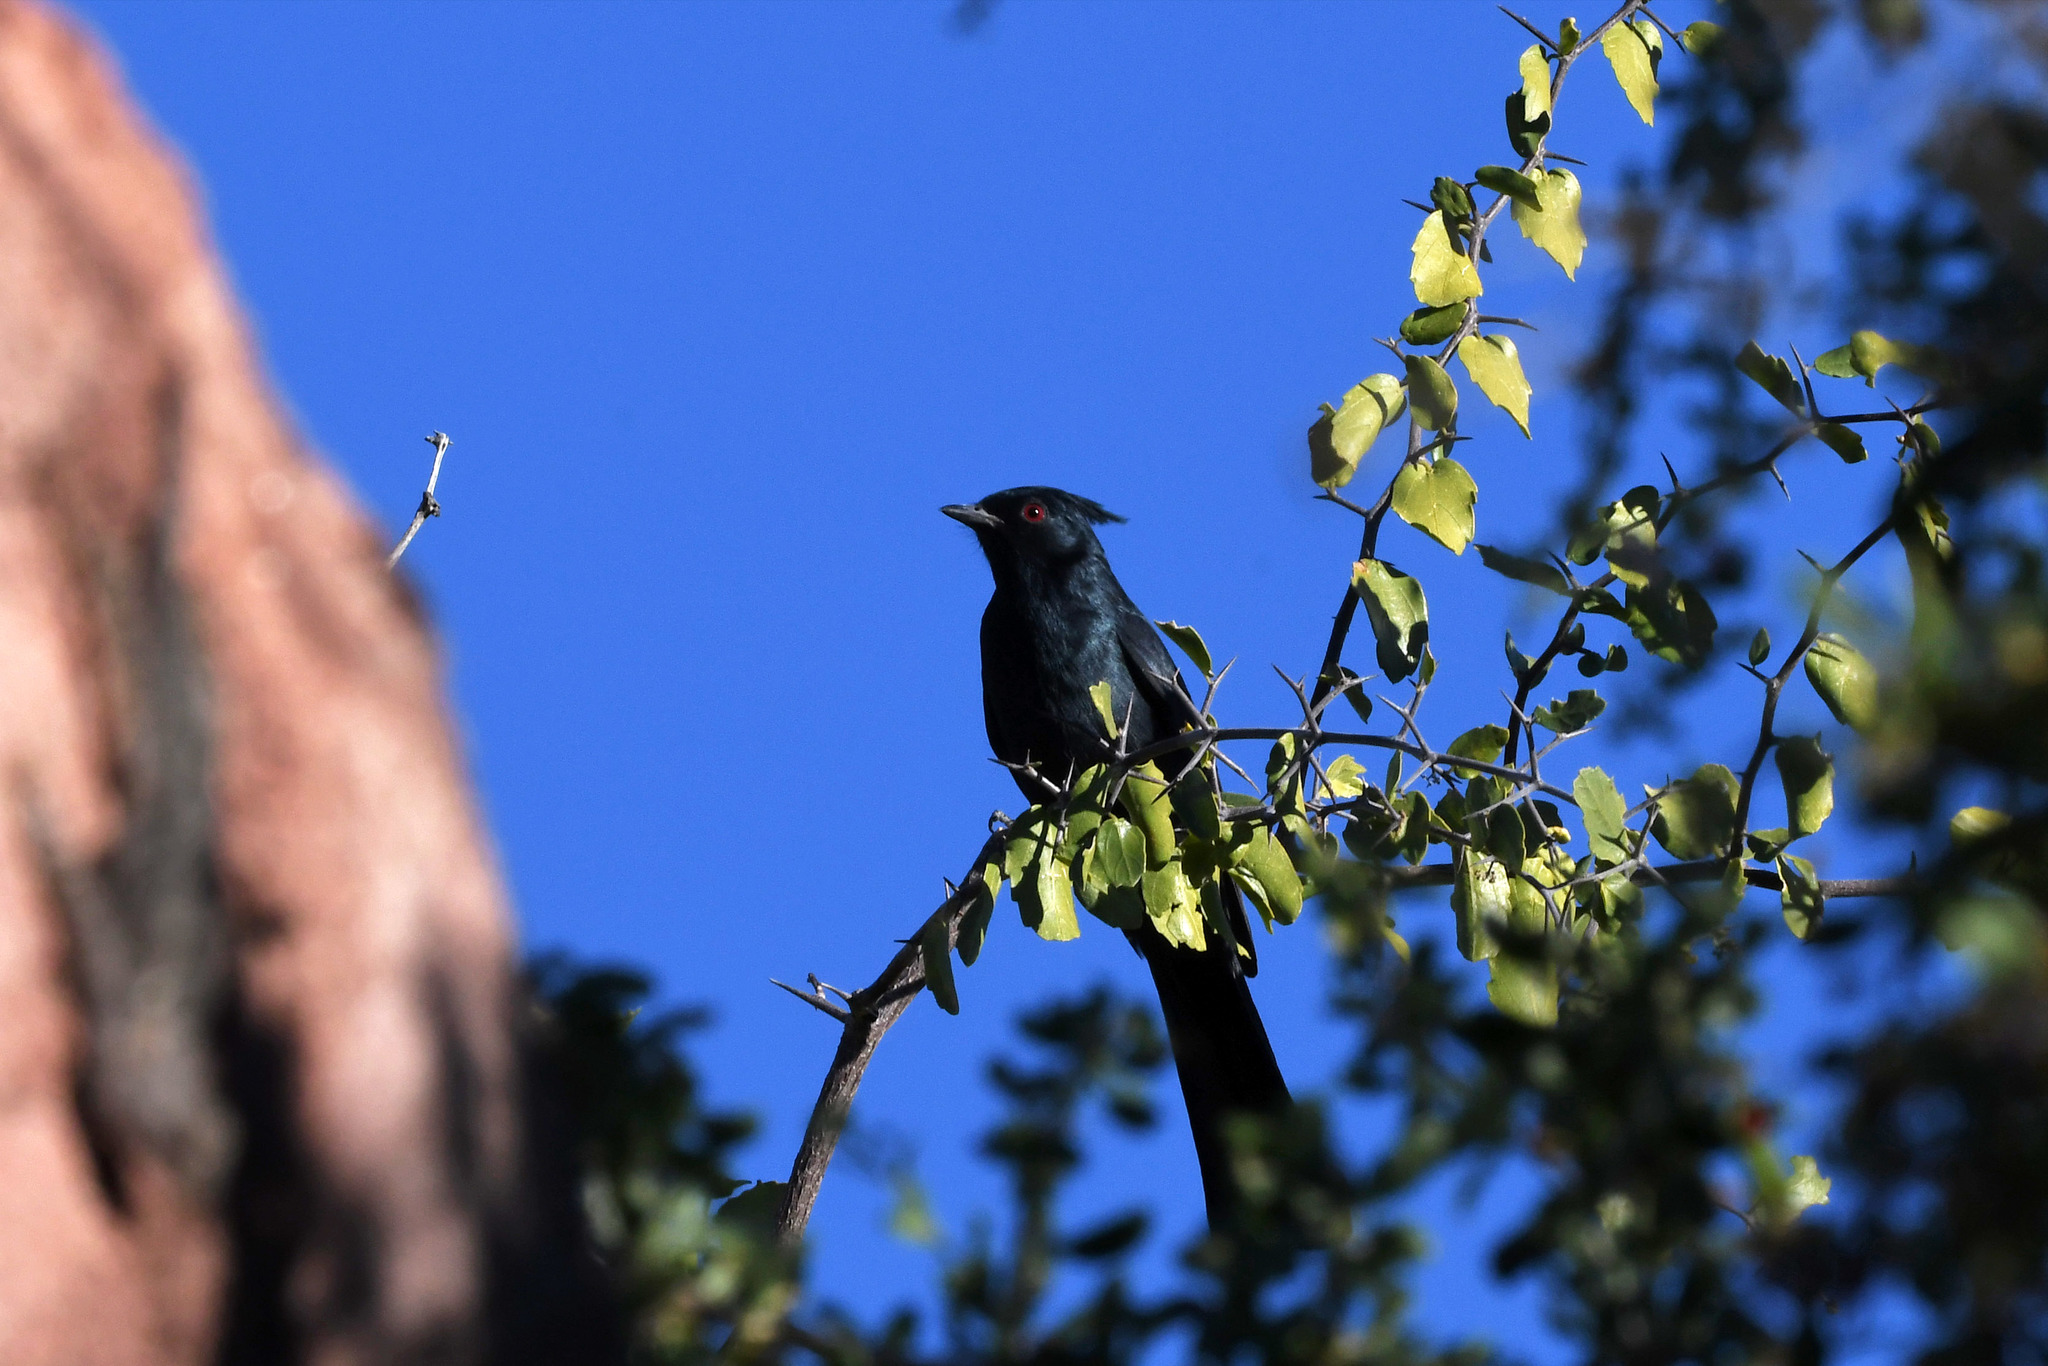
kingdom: Animalia
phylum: Chordata
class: Aves
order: Passeriformes
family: Ptilogonatidae
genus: Phainopepla
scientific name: Phainopepla nitens
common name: Phainopepla
